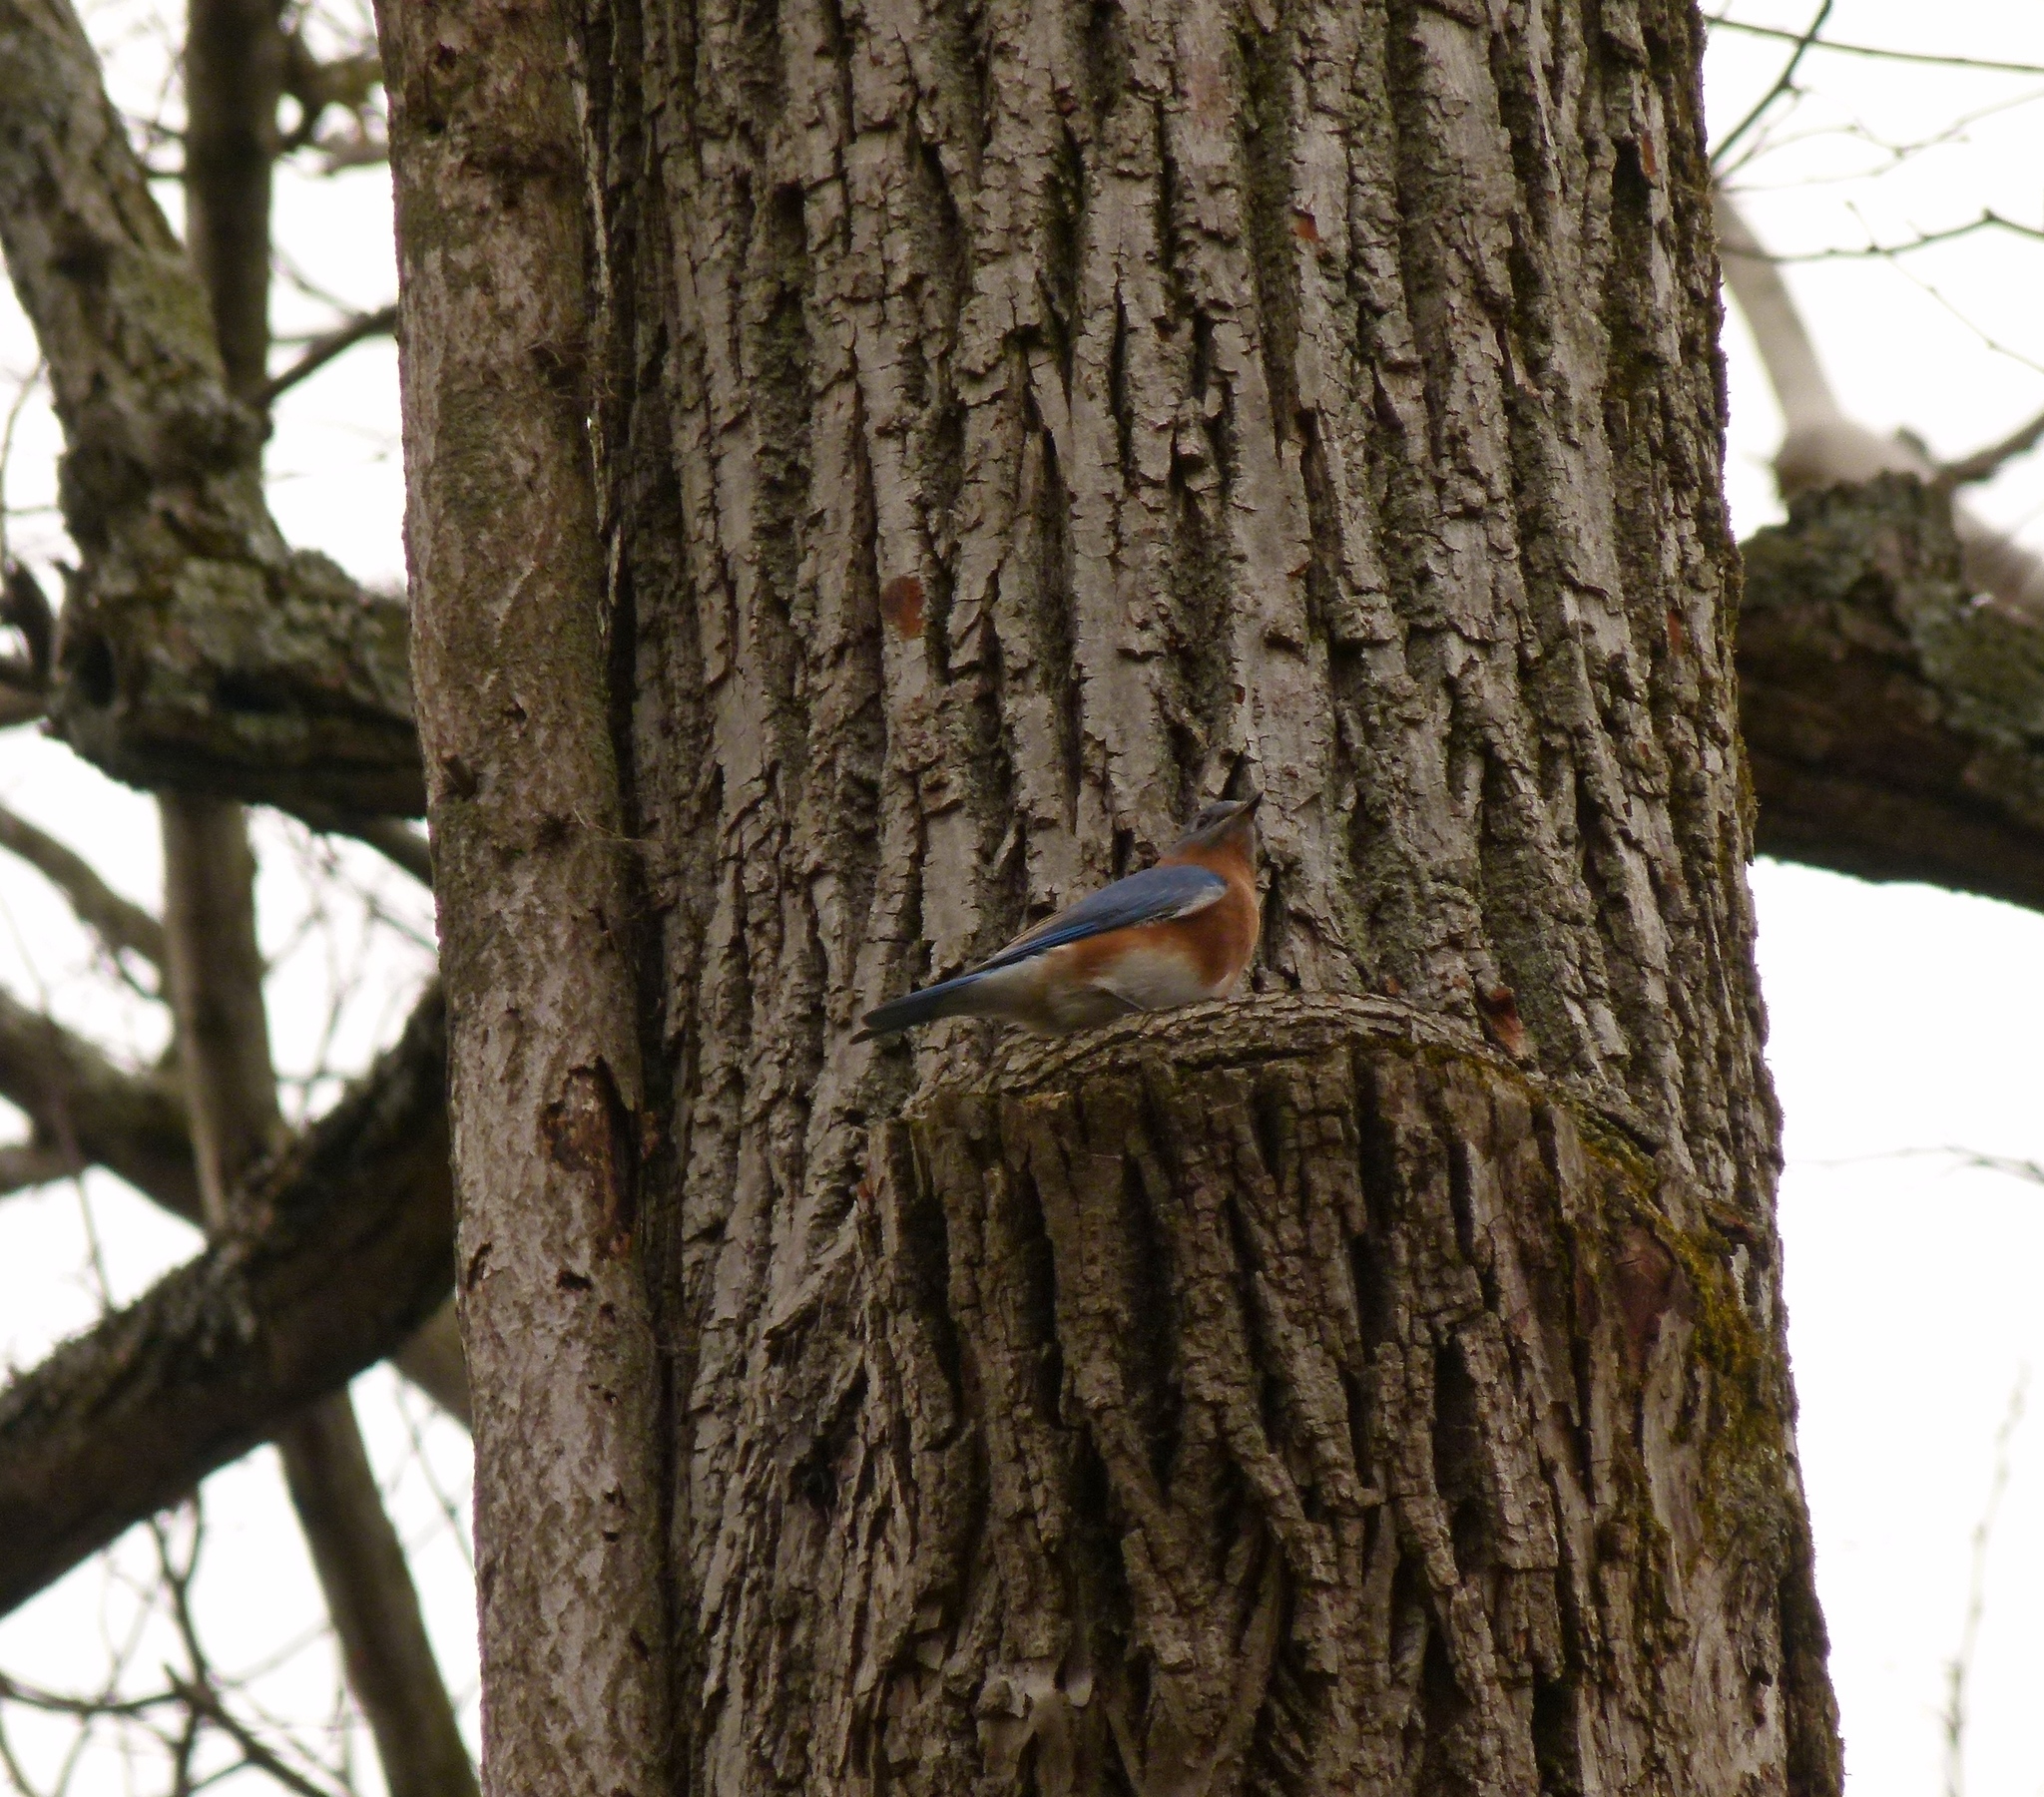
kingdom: Animalia
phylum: Chordata
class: Aves
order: Passeriformes
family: Turdidae
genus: Sialia
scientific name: Sialia sialis
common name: Eastern bluebird
